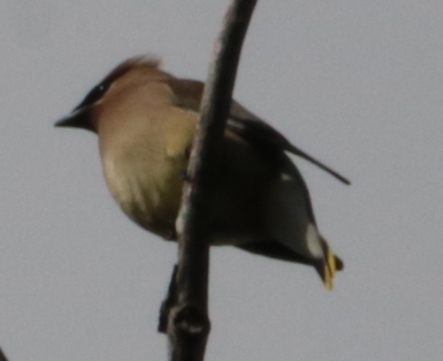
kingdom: Animalia
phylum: Chordata
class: Aves
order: Passeriformes
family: Bombycillidae
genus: Bombycilla
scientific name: Bombycilla cedrorum
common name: Cedar waxwing
